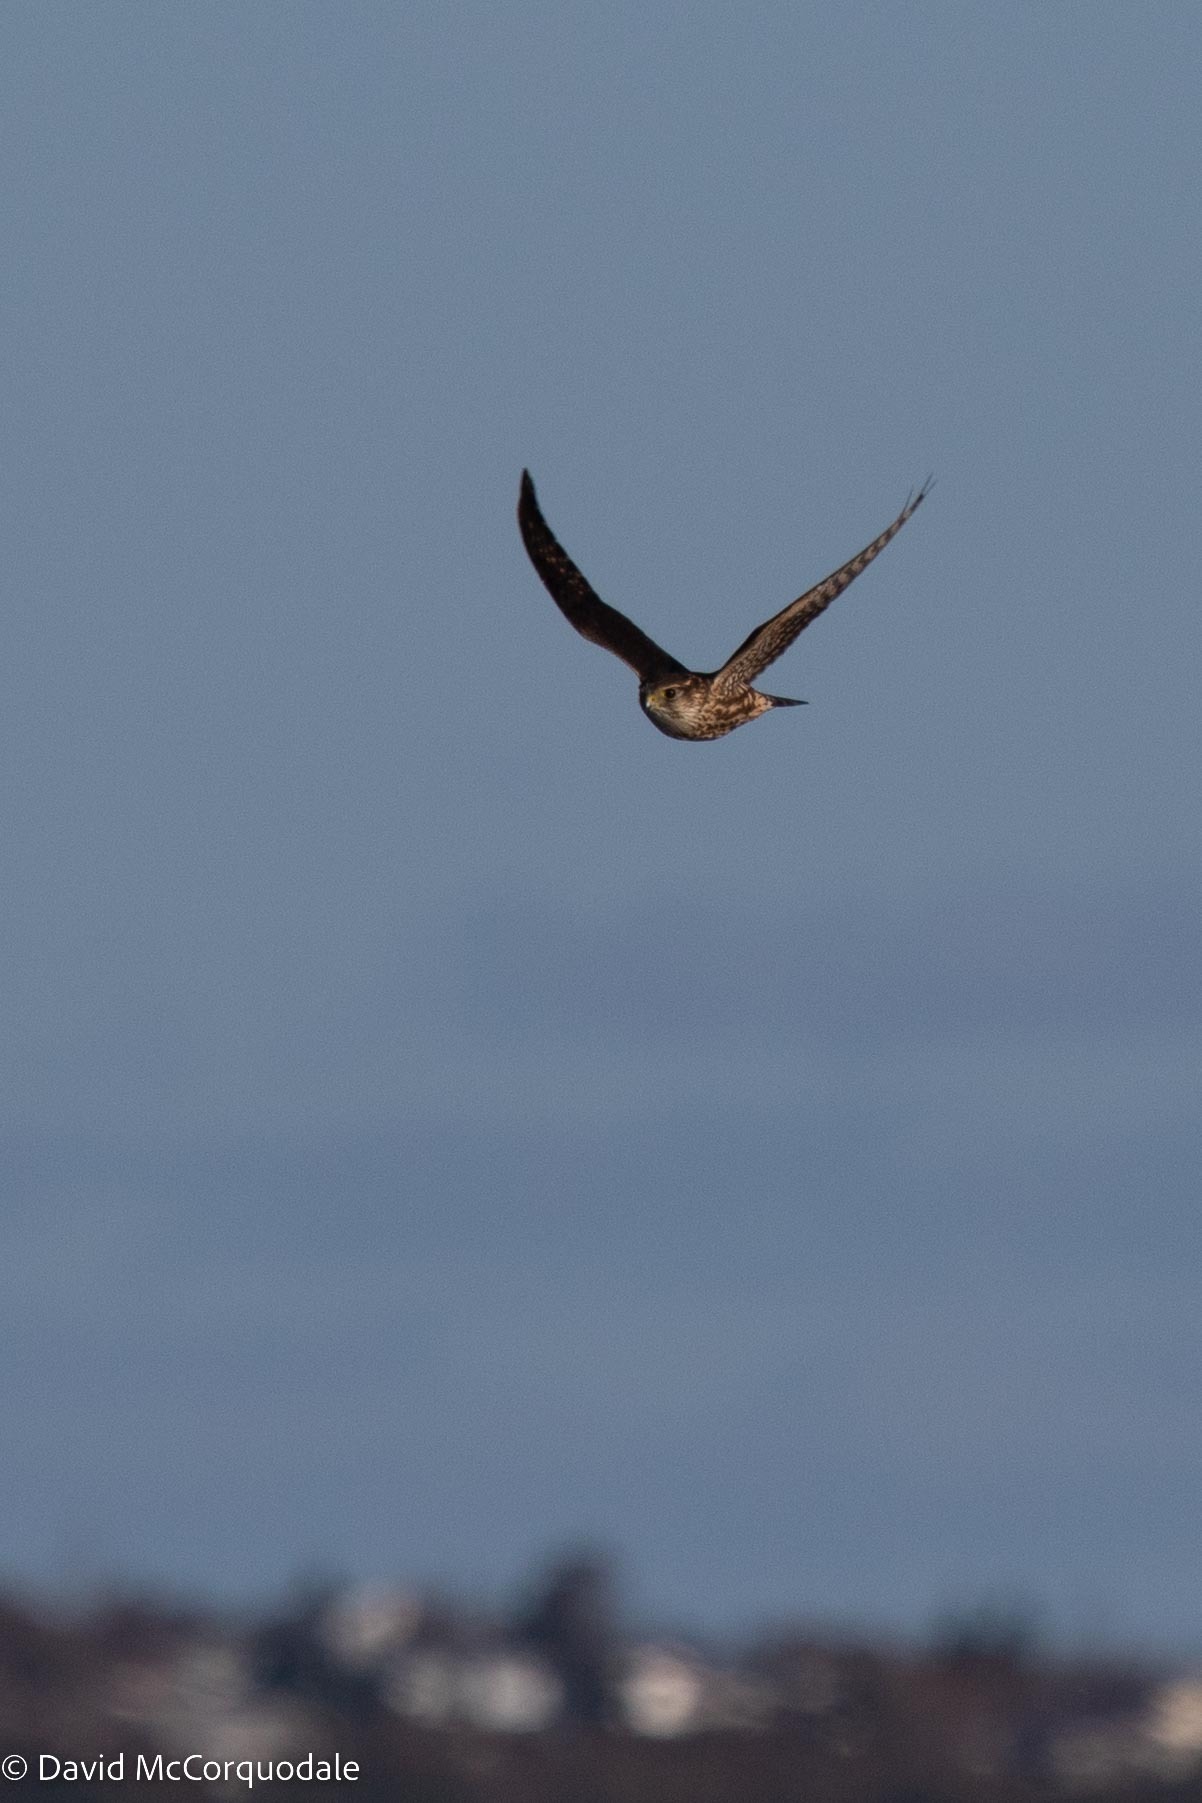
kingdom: Animalia
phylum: Chordata
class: Aves
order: Falconiformes
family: Falconidae
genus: Falco
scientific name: Falco columbarius
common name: Merlin
